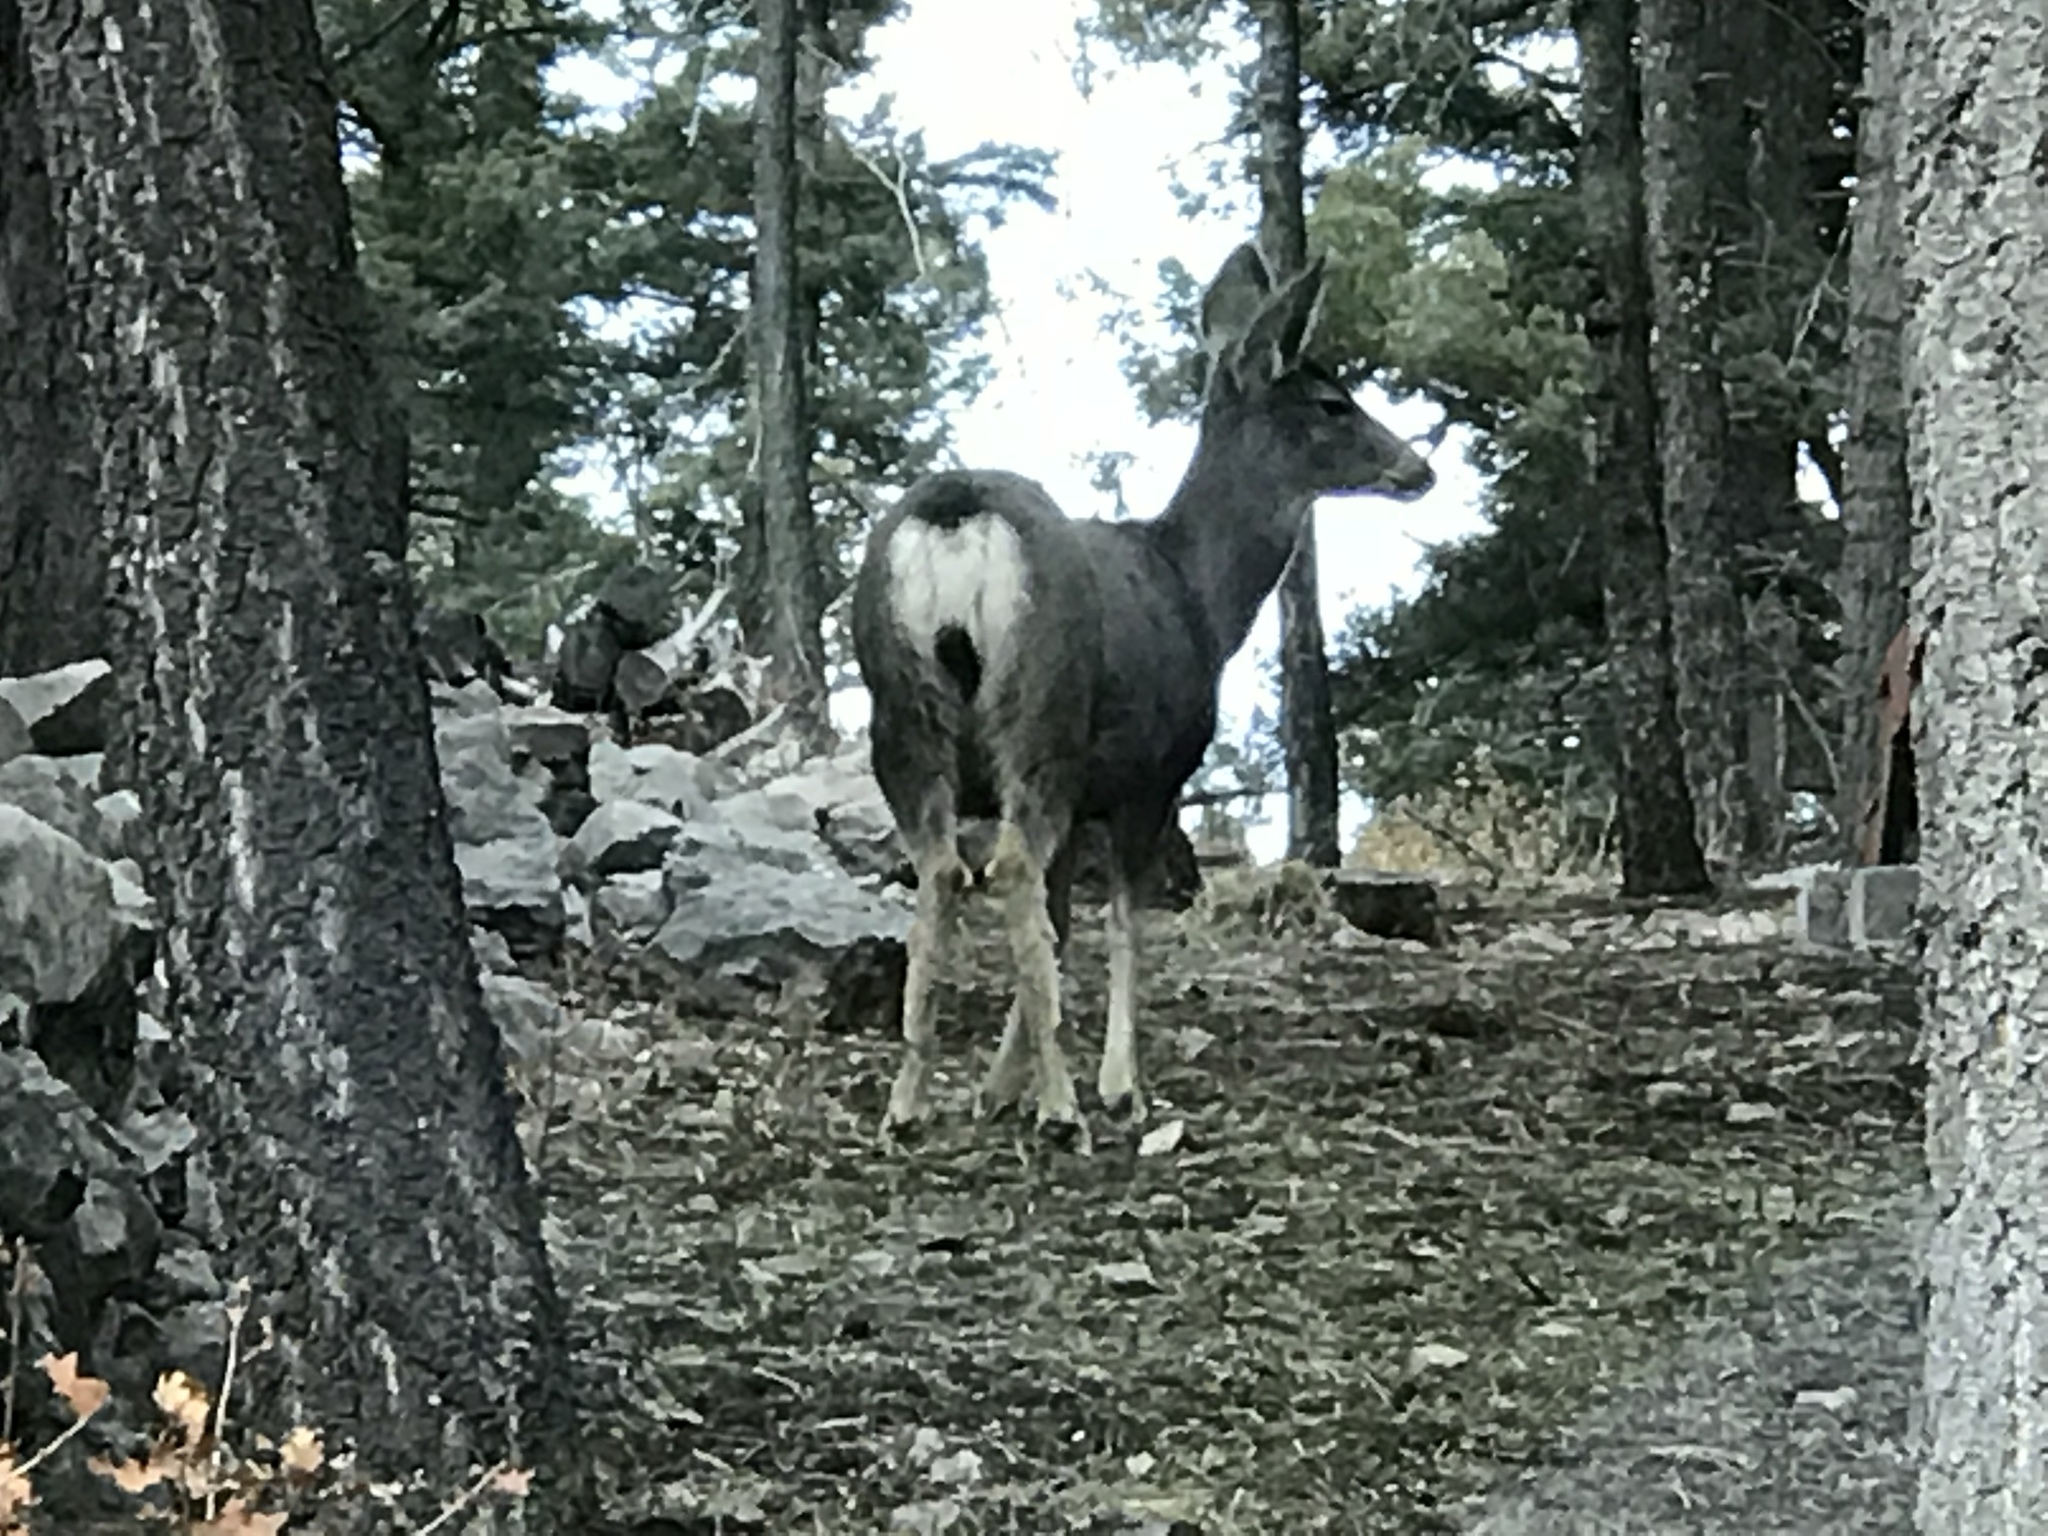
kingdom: Animalia
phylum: Chordata
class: Mammalia
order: Artiodactyla
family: Cervidae
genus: Odocoileus
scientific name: Odocoileus hemionus
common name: Mule deer
